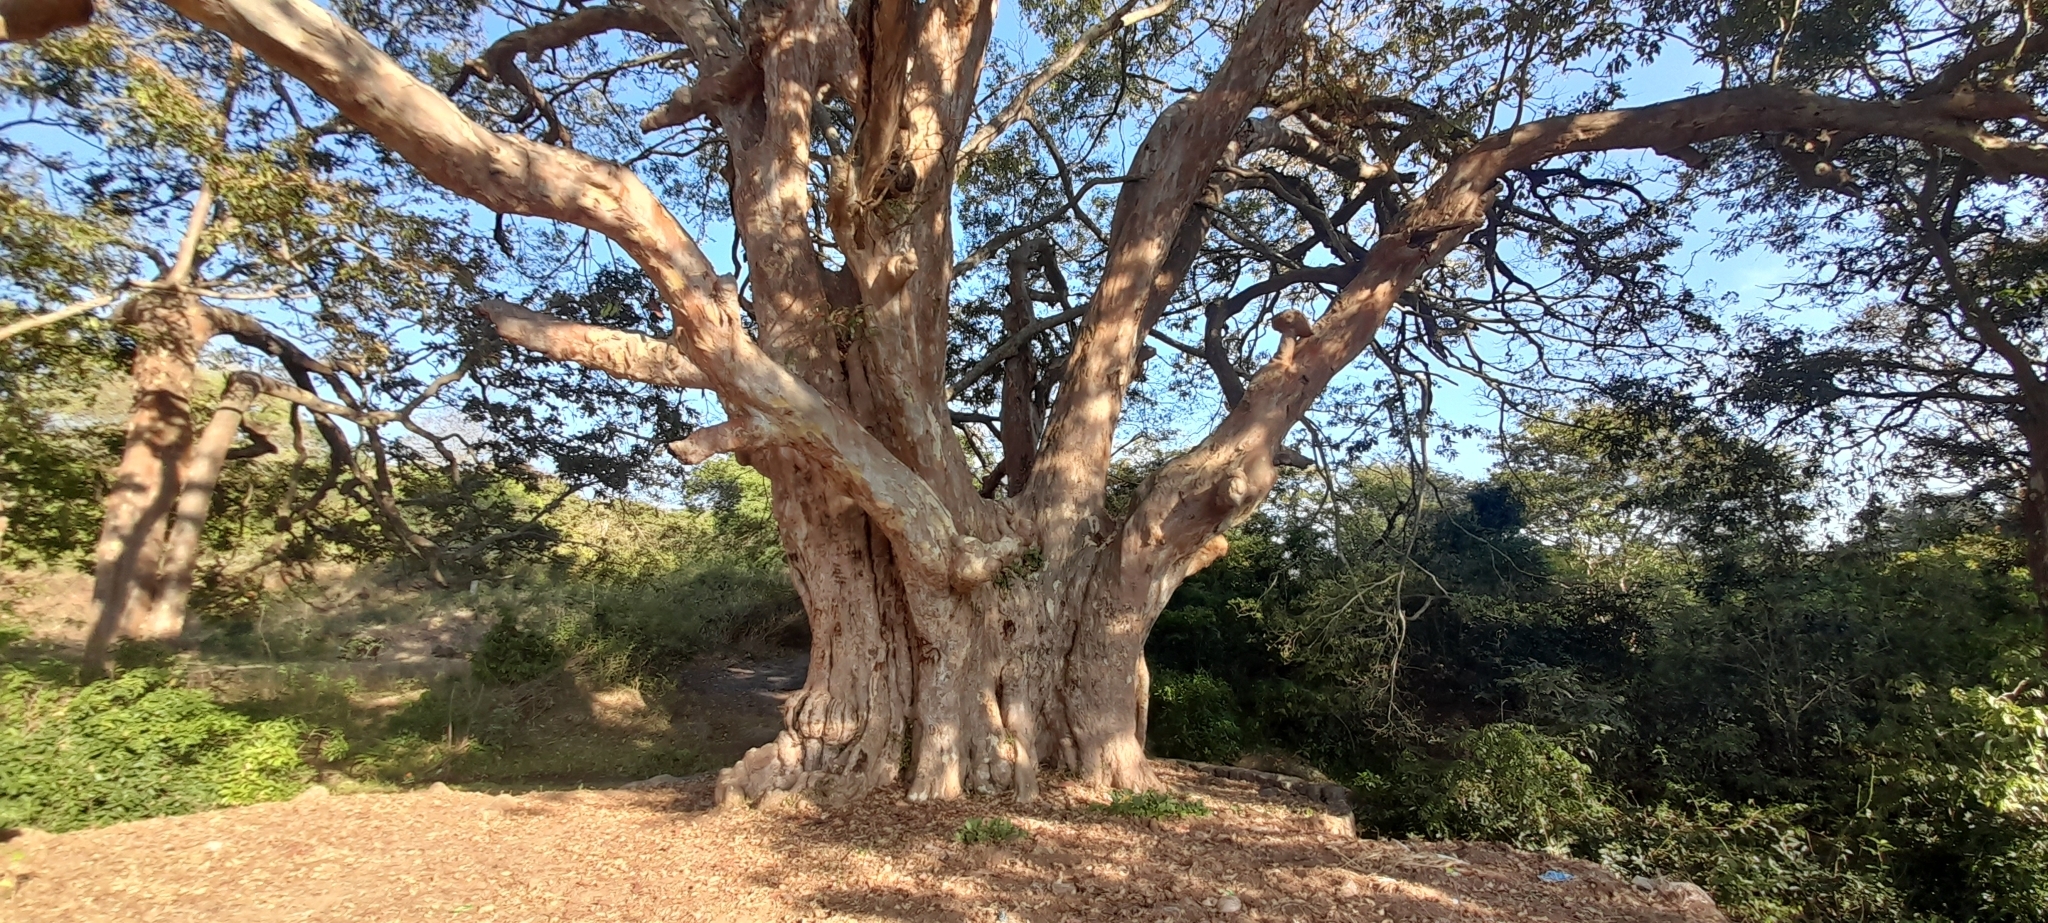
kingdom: Plantae
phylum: Tracheophyta
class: Magnoliopsida
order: Myrtales
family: Combretaceae
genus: Terminalia
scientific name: Terminalia arjuna
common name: Arjun
